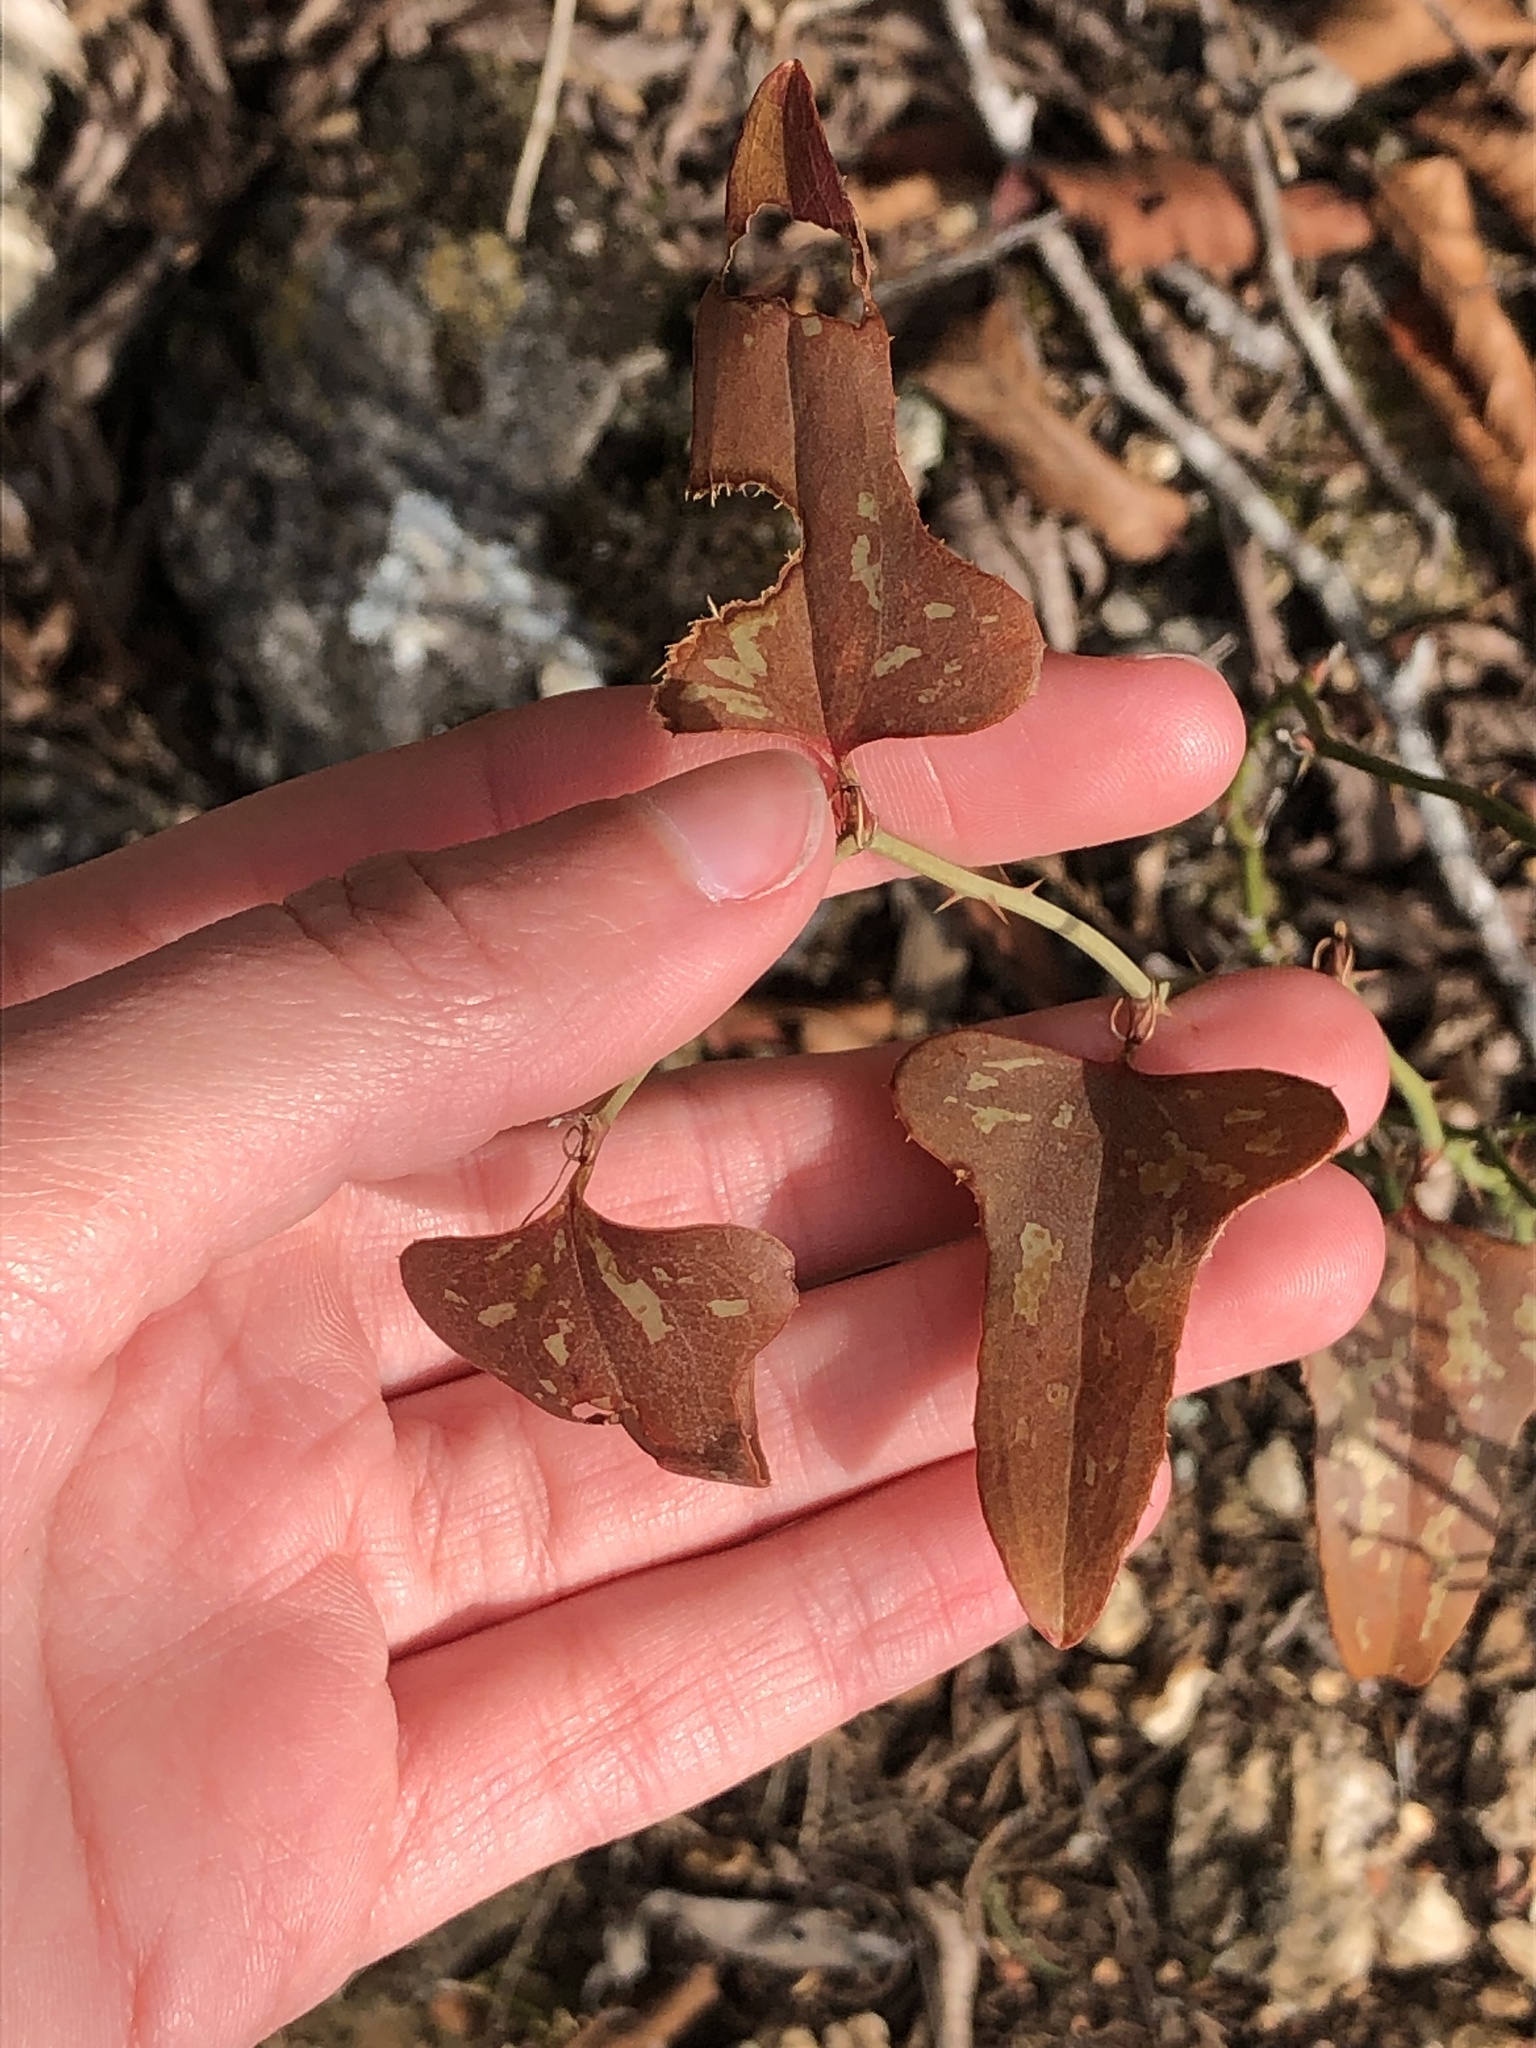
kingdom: Plantae
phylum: Tracheophyta
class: Liliopsida
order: Liliales
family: Smilacaceae
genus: Smilax
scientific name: Smilax bona-nox
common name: Catbrier
